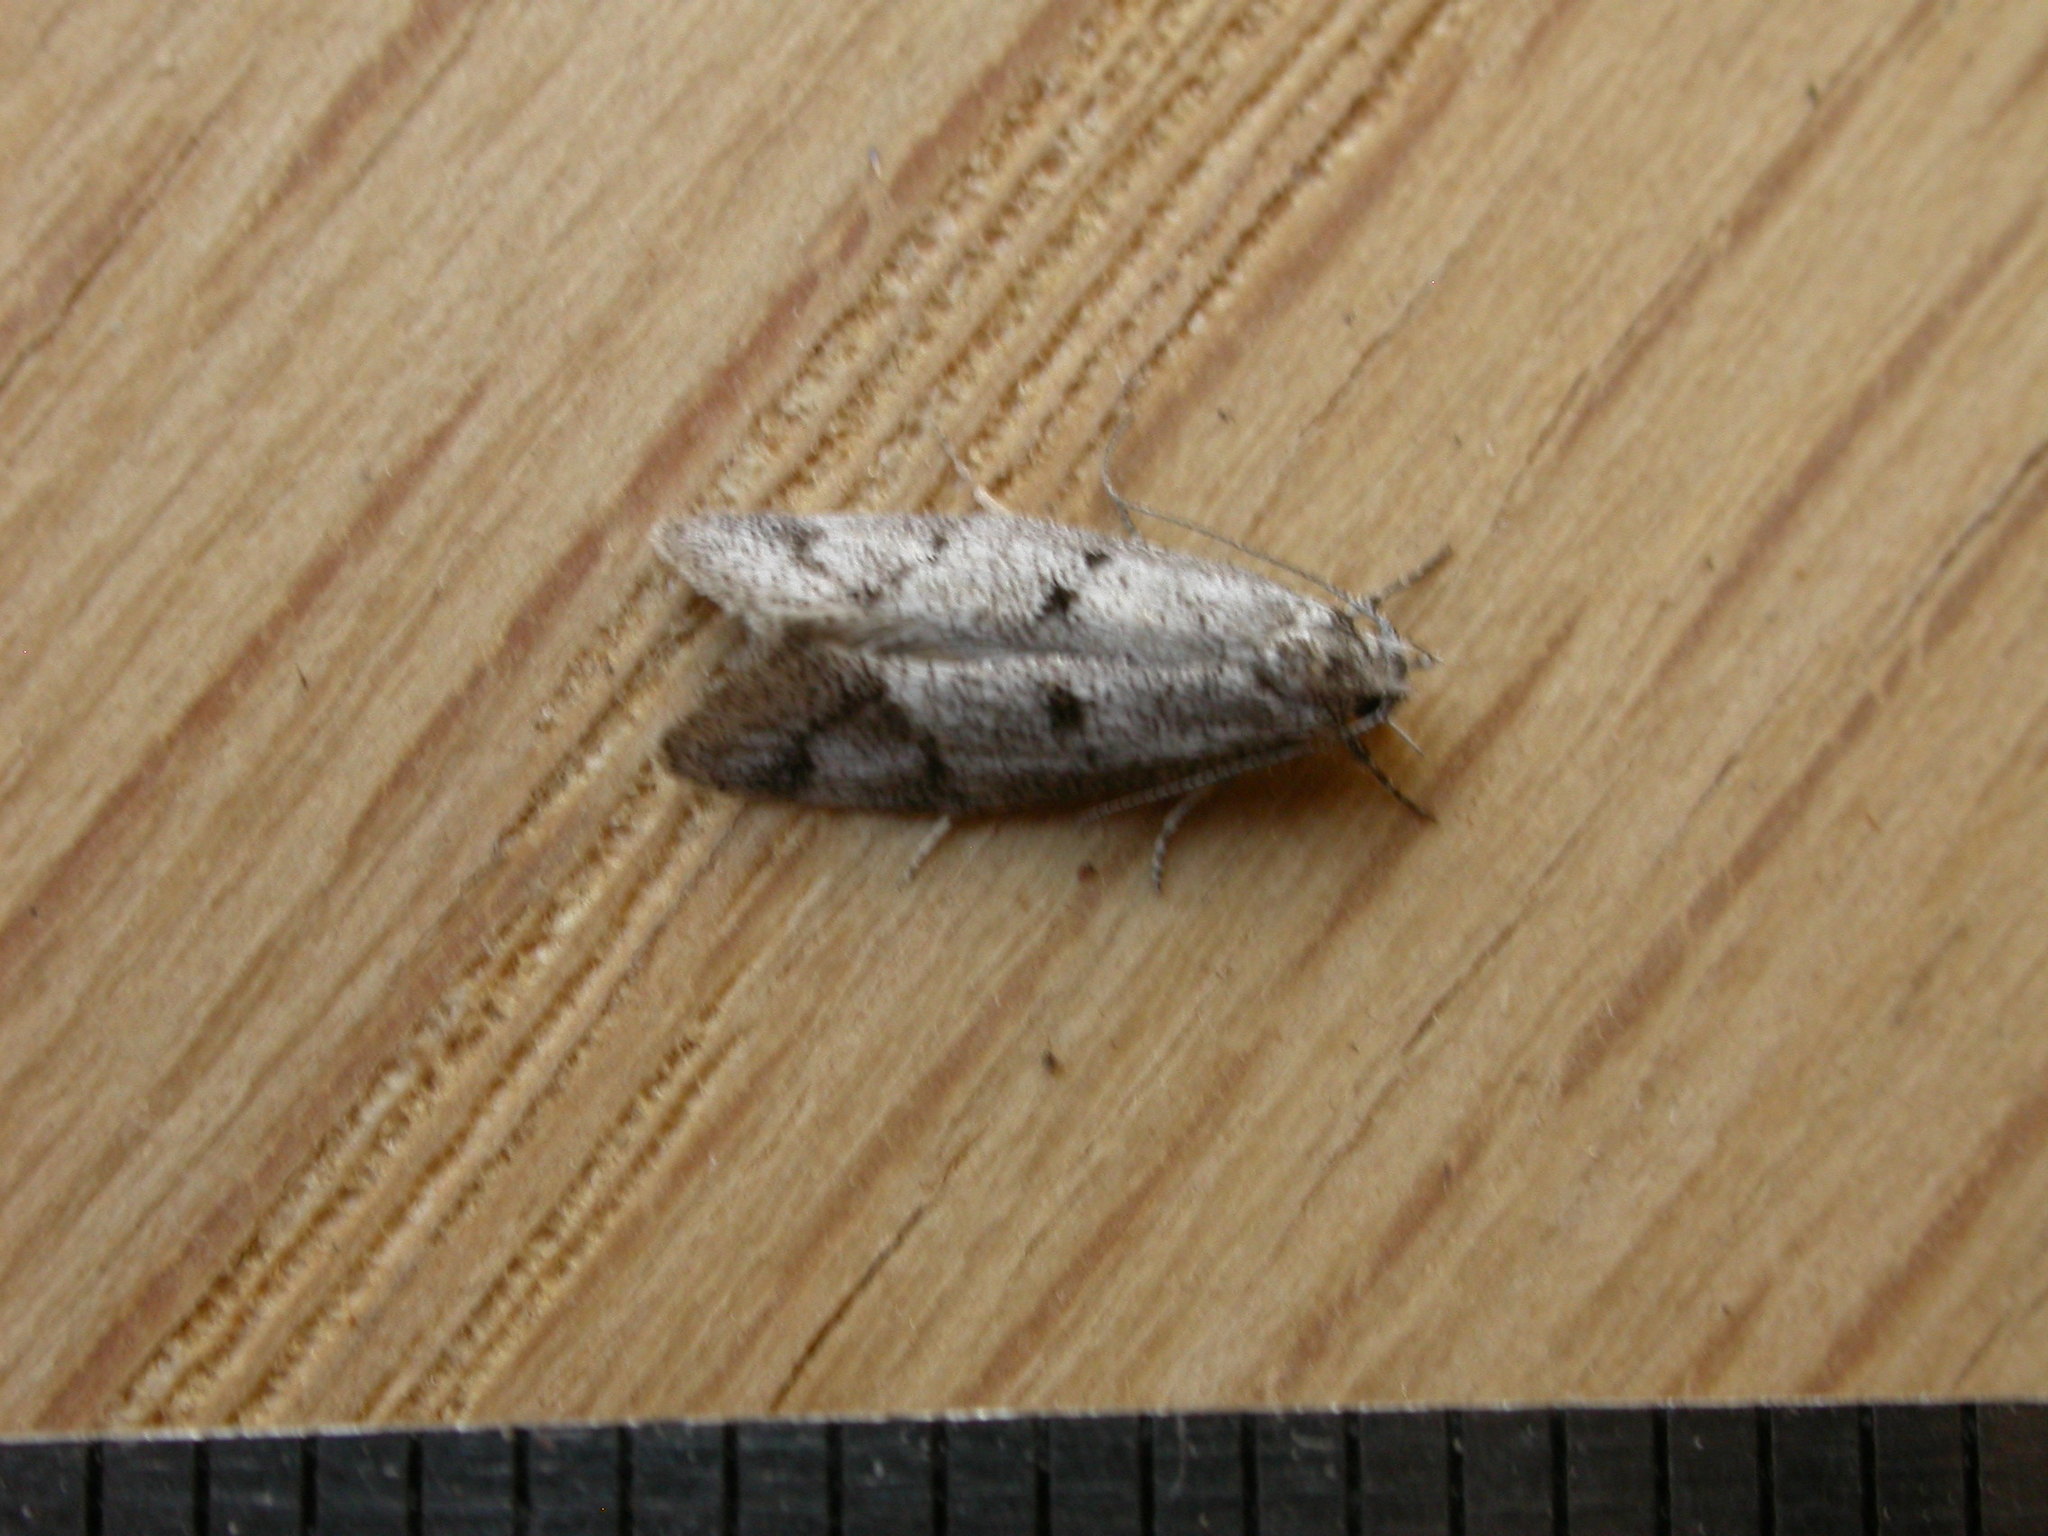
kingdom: Animalia
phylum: Arthropoda
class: Insecta
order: Lepidoptera
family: Oecophoridae
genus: Heterozyga
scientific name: Heterozyga coppatias
